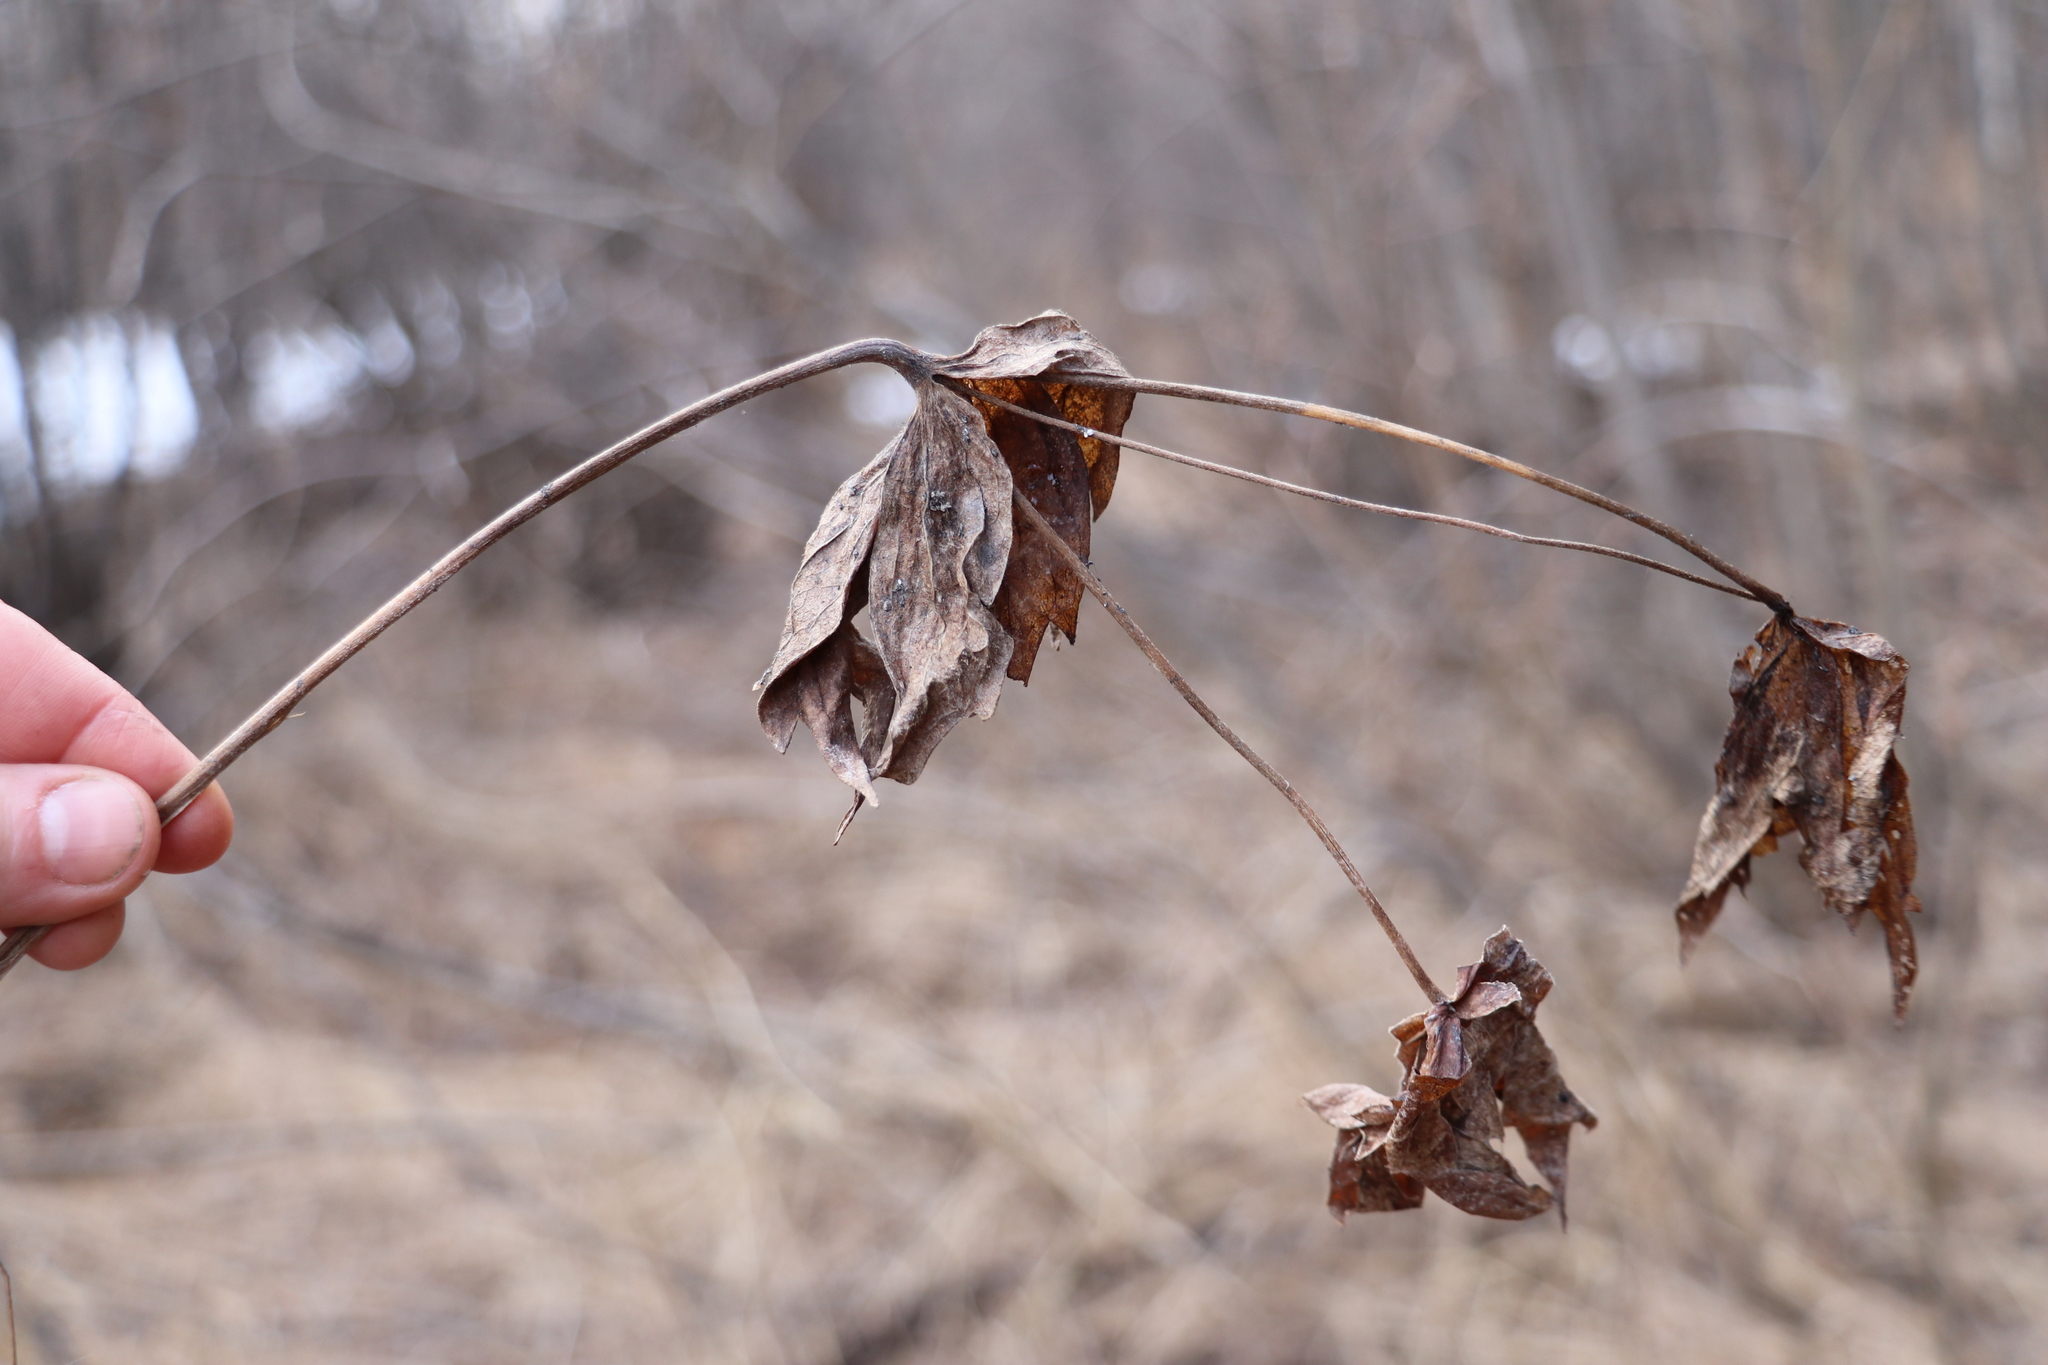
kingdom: Plantae
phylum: Tracheophyta
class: Magnoliopsida
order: Ranunculales
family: Ranunculaceae
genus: Anemonastrum
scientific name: Anemonastrum dichotomum
